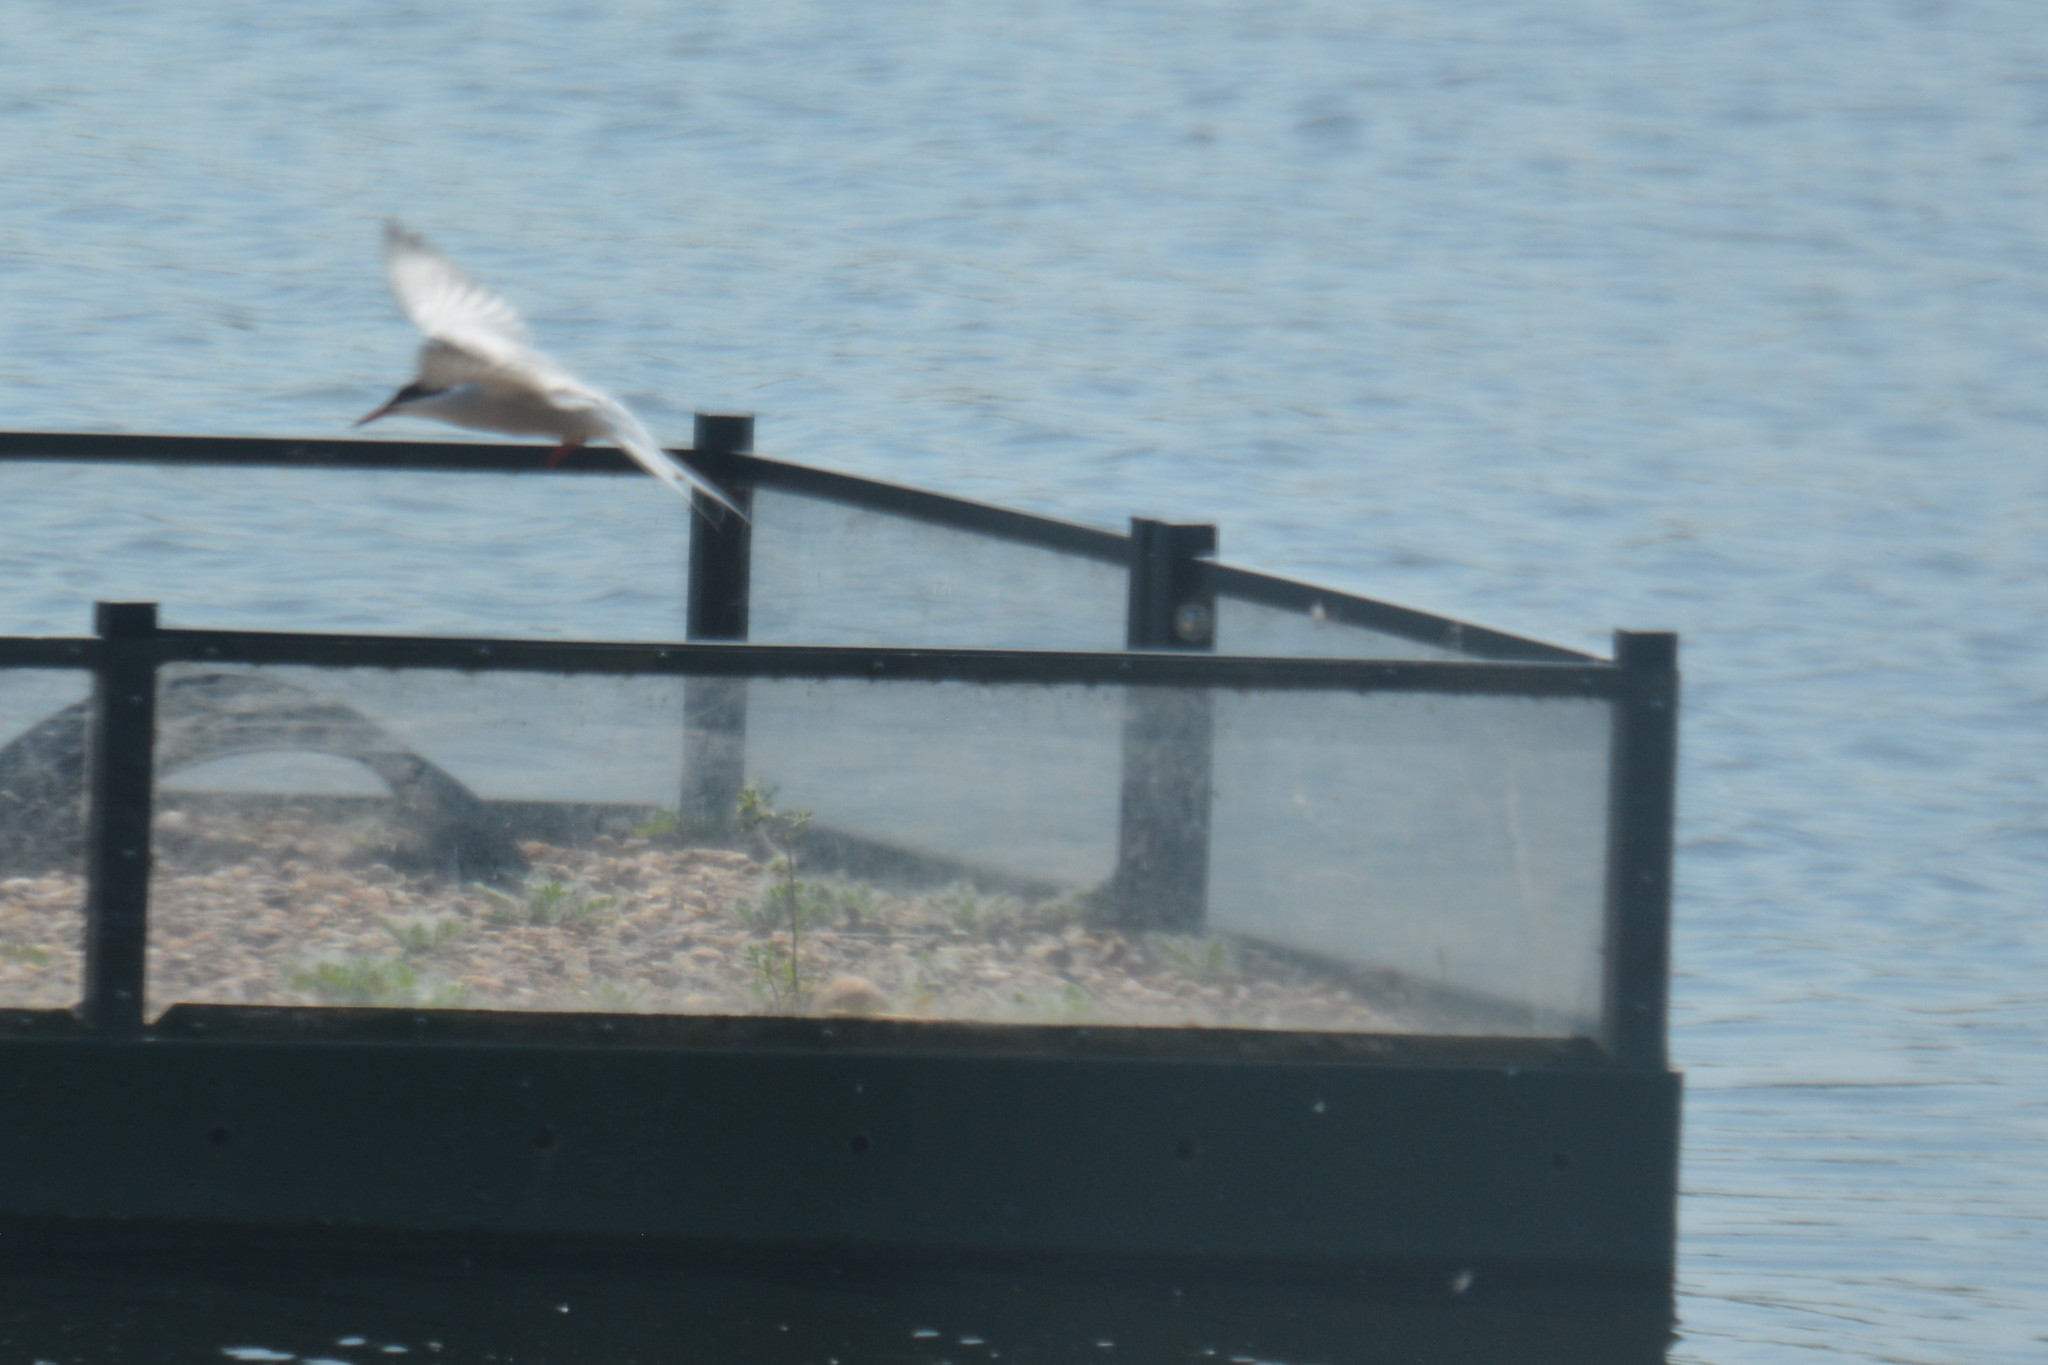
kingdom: Animalia
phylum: Chordata
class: Aves
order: Charadriiformes
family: Laridae
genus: Sterna
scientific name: Sterna hirundo
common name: Common tern
